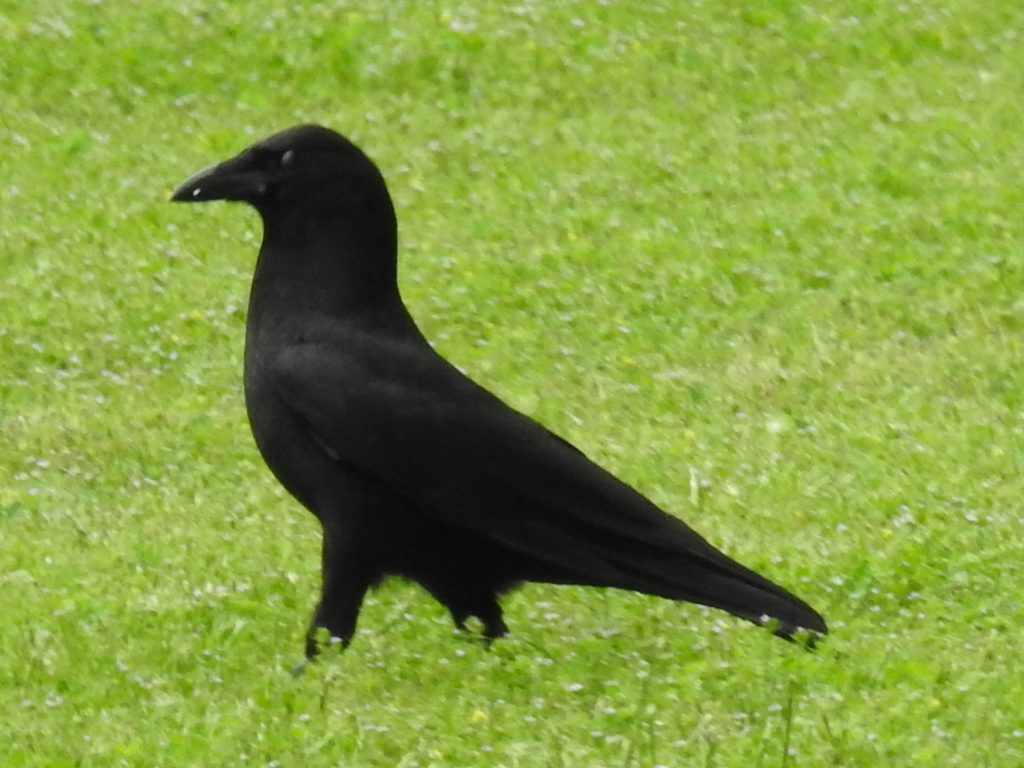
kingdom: Animalia
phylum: Chordata
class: Aves
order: Passeriformes
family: Corvidae
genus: Corvus
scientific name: Corvus brachyrhynchos
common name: American crow
